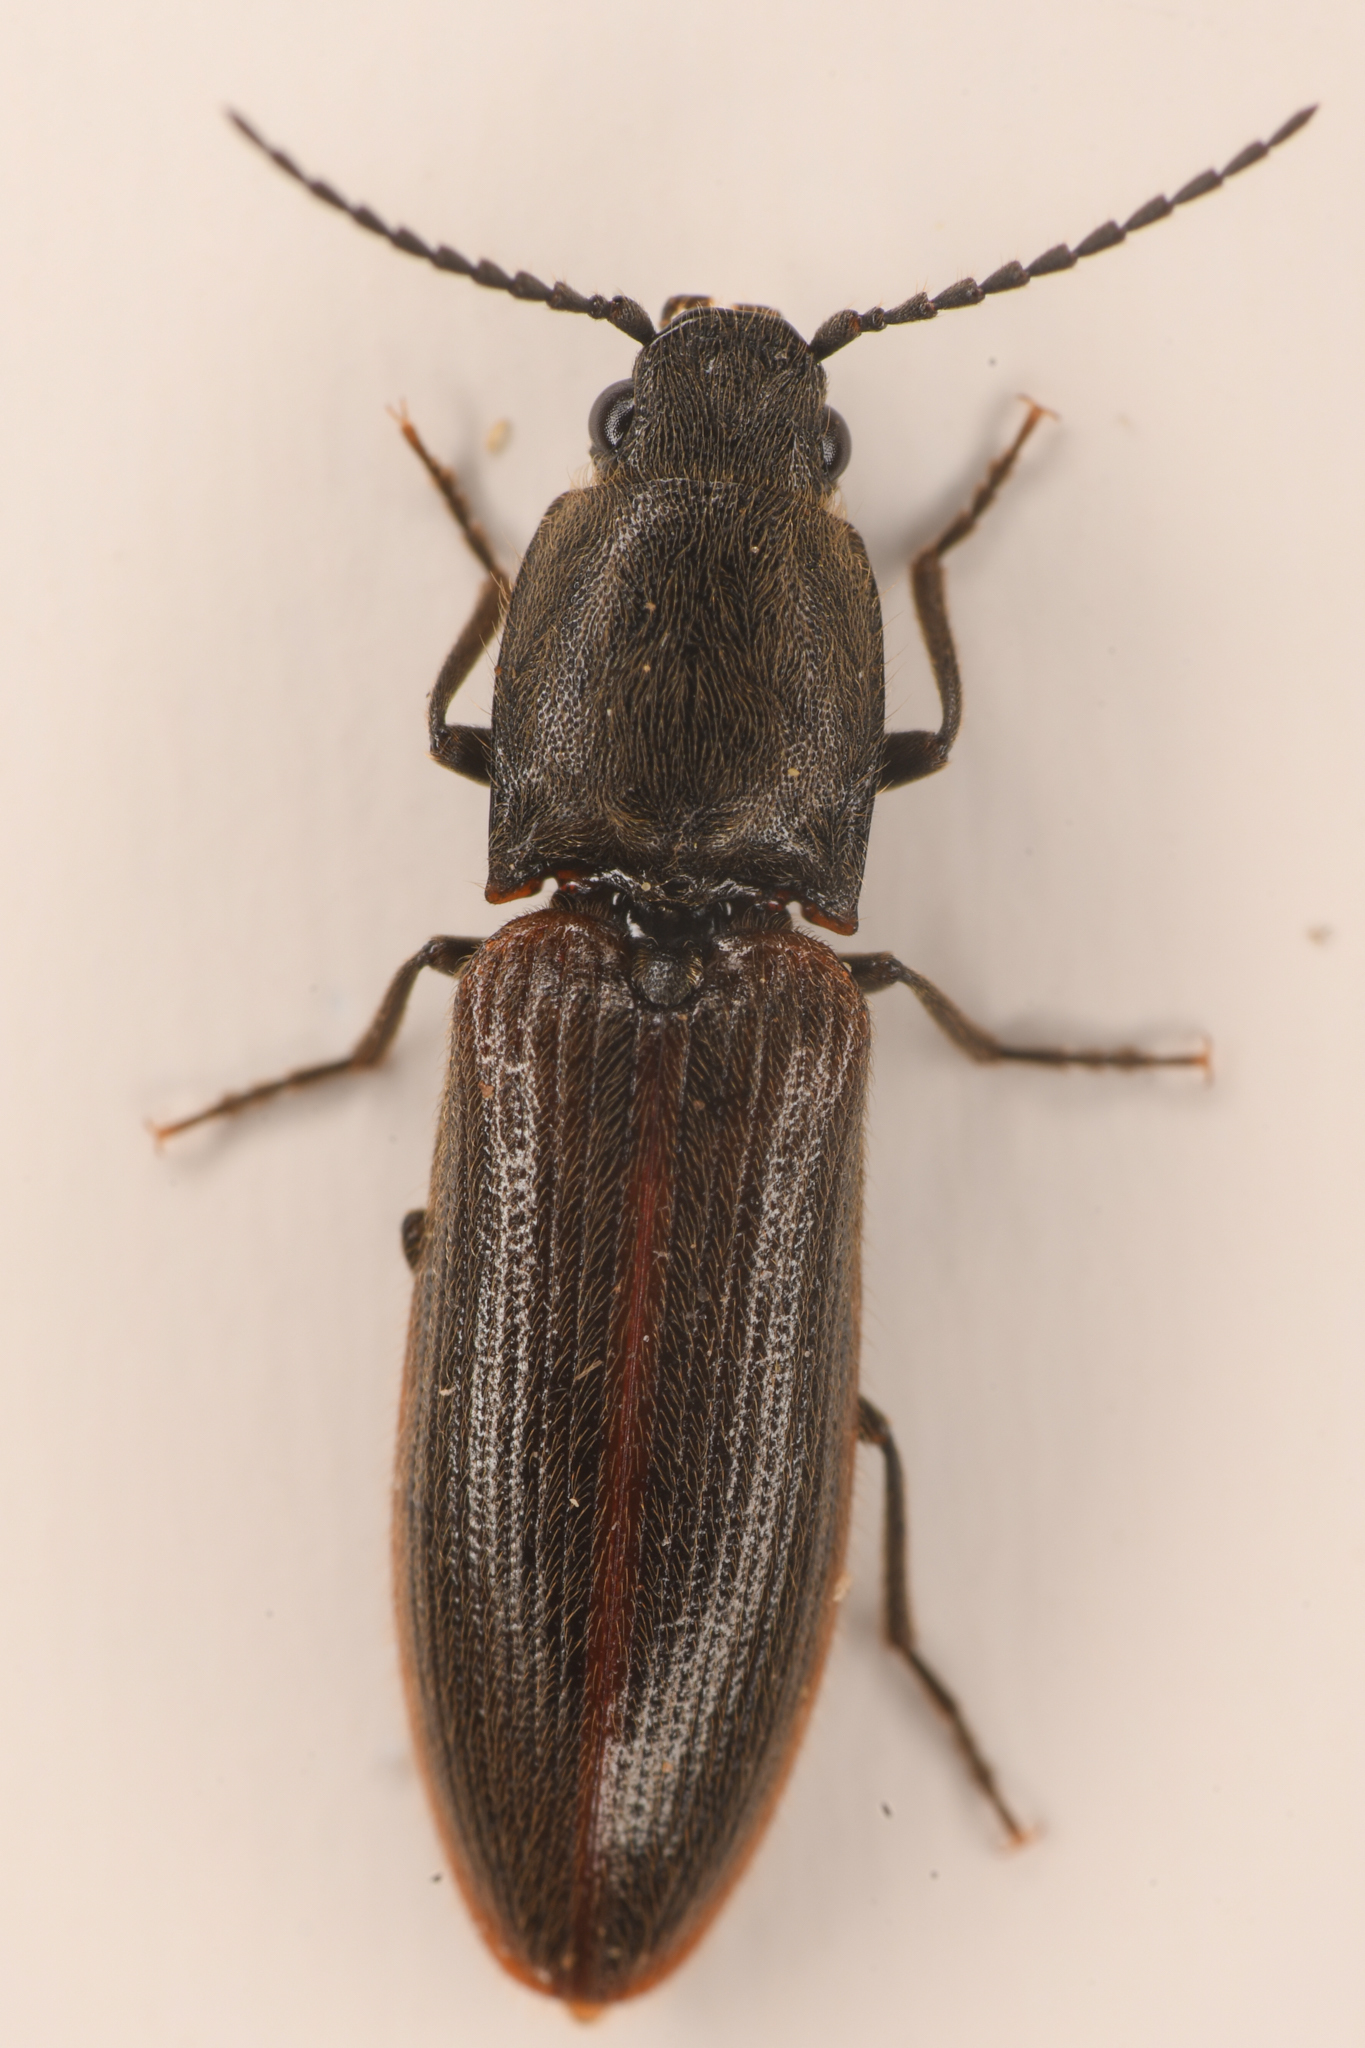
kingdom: Animalia
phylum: Arthropoda
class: Insecta
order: Coleoptera
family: Elateridae
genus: Athous
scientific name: Athous sierrae
